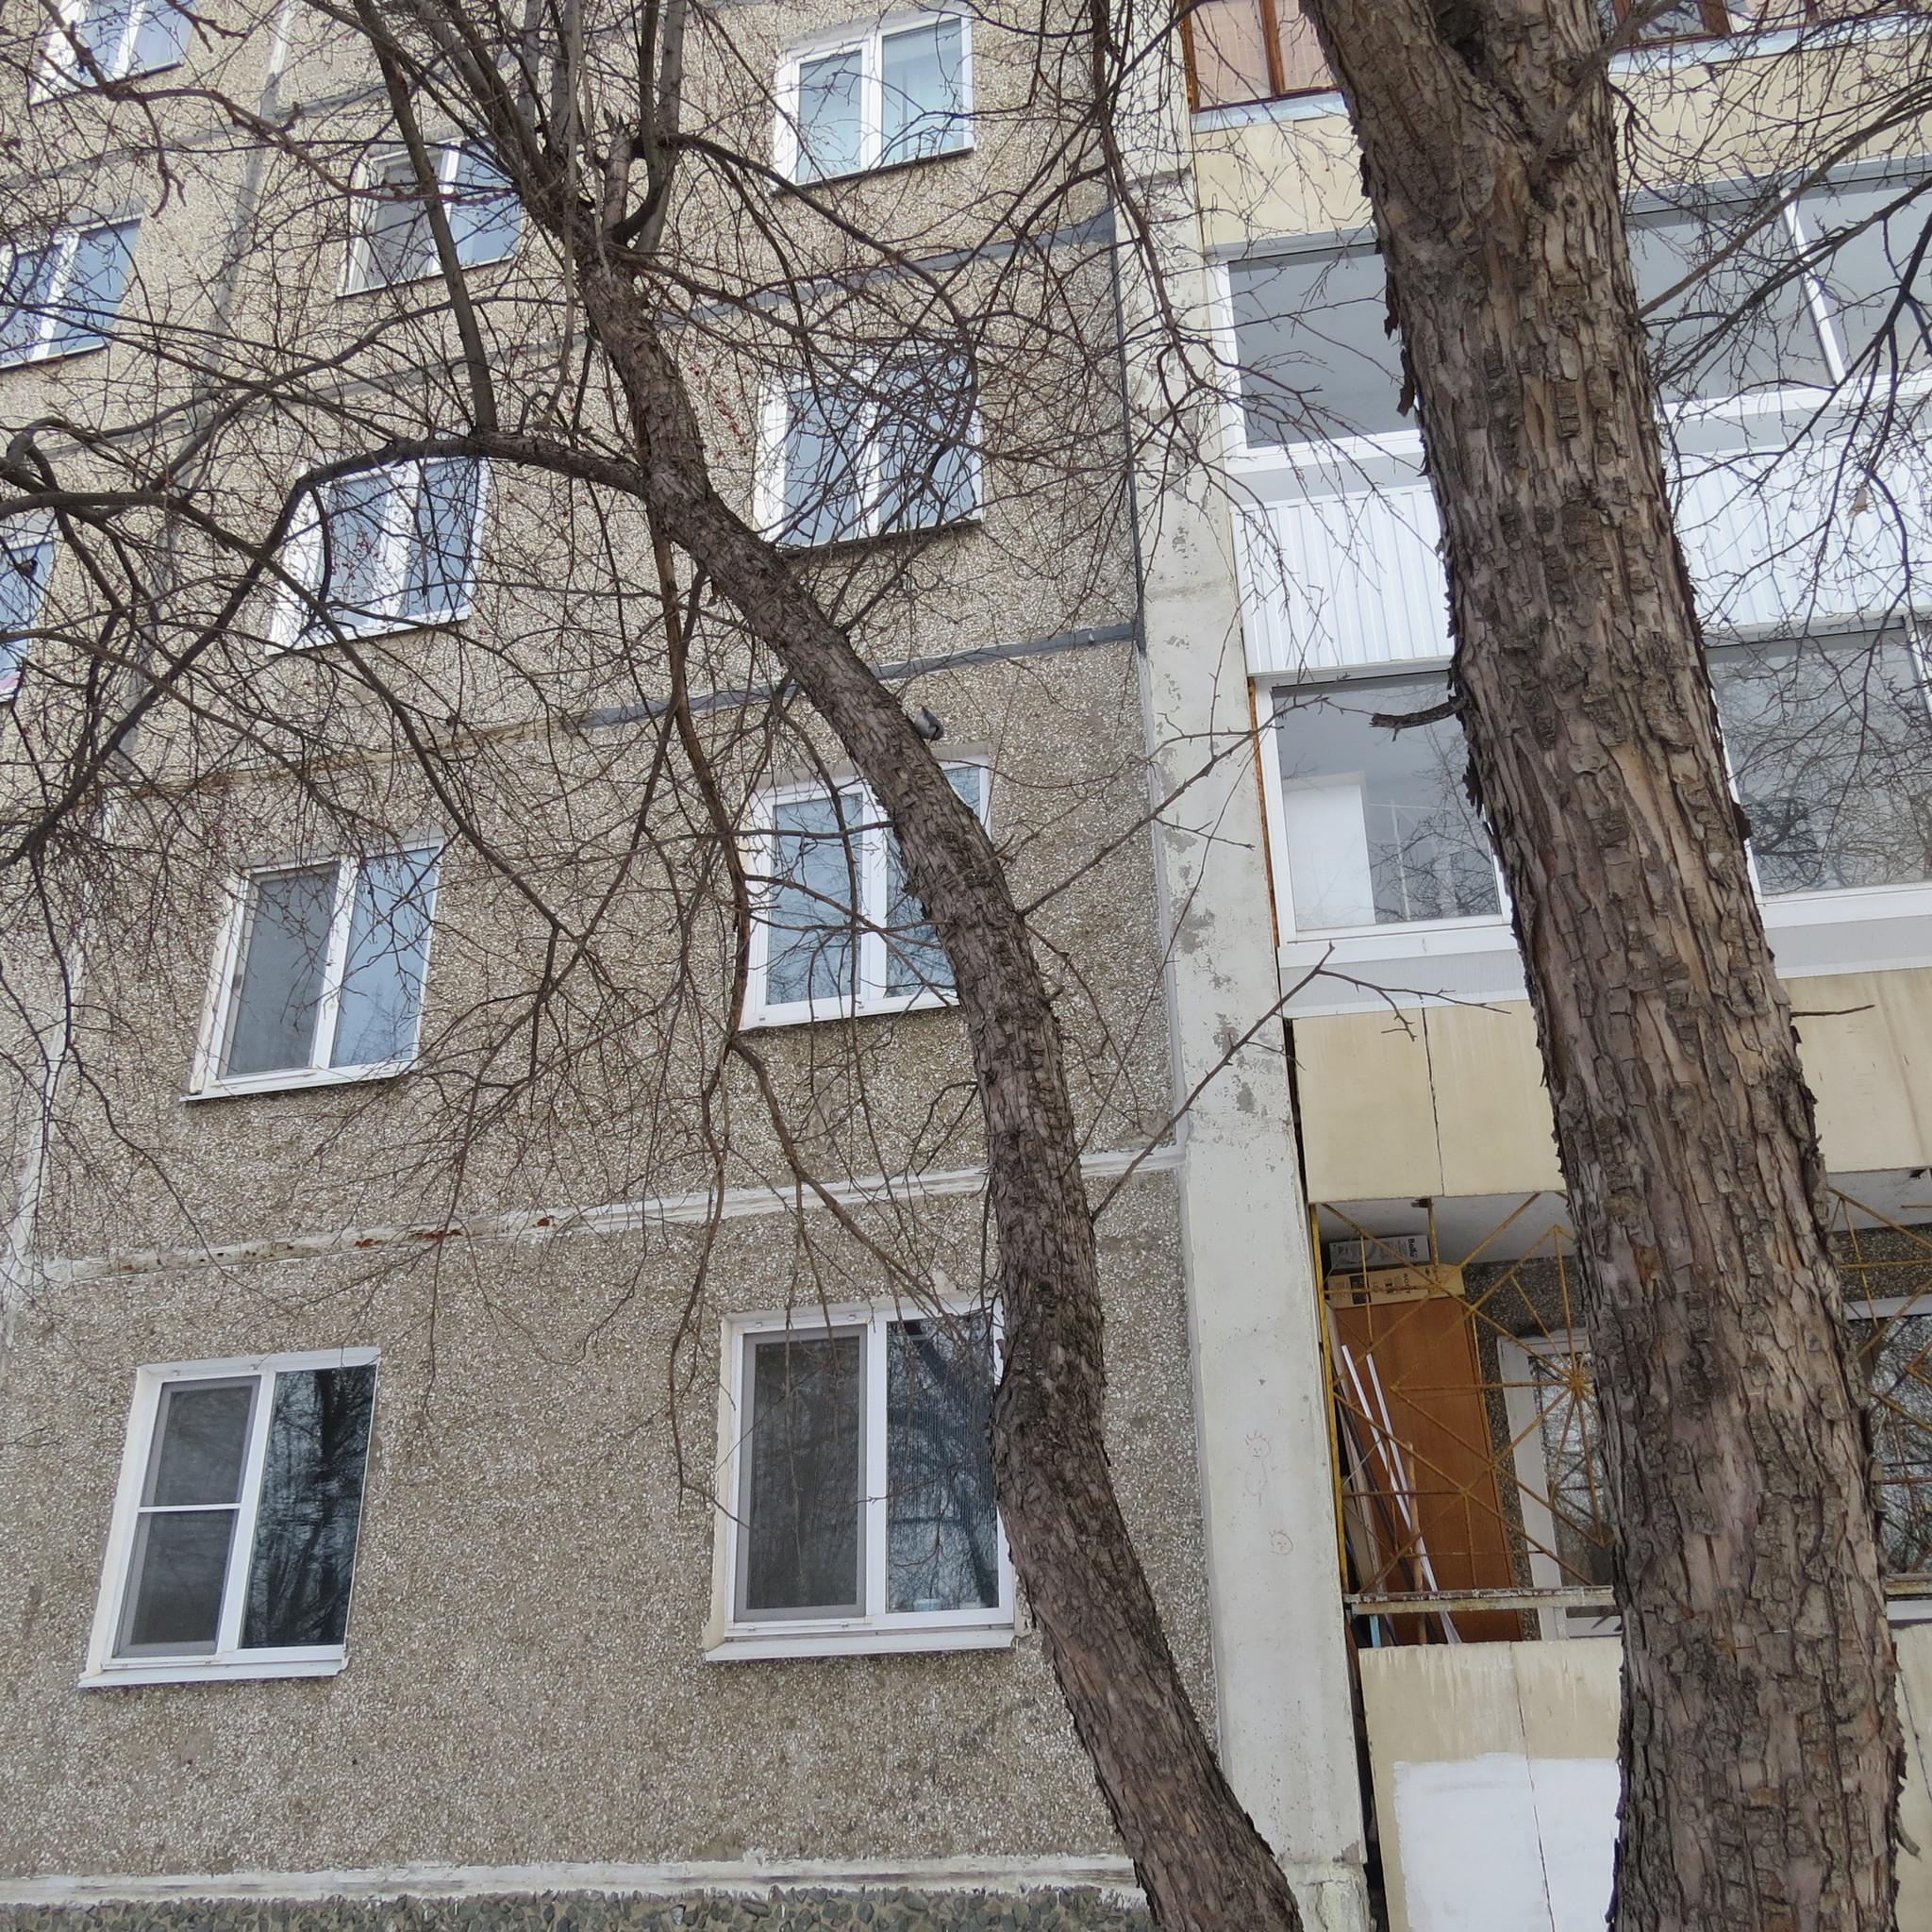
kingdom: Animalia
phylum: Chordata
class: Aves
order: Passeriformes
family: Sittidae
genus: Sitta
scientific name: Sitta europaea
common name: Eurasian nuthatch
